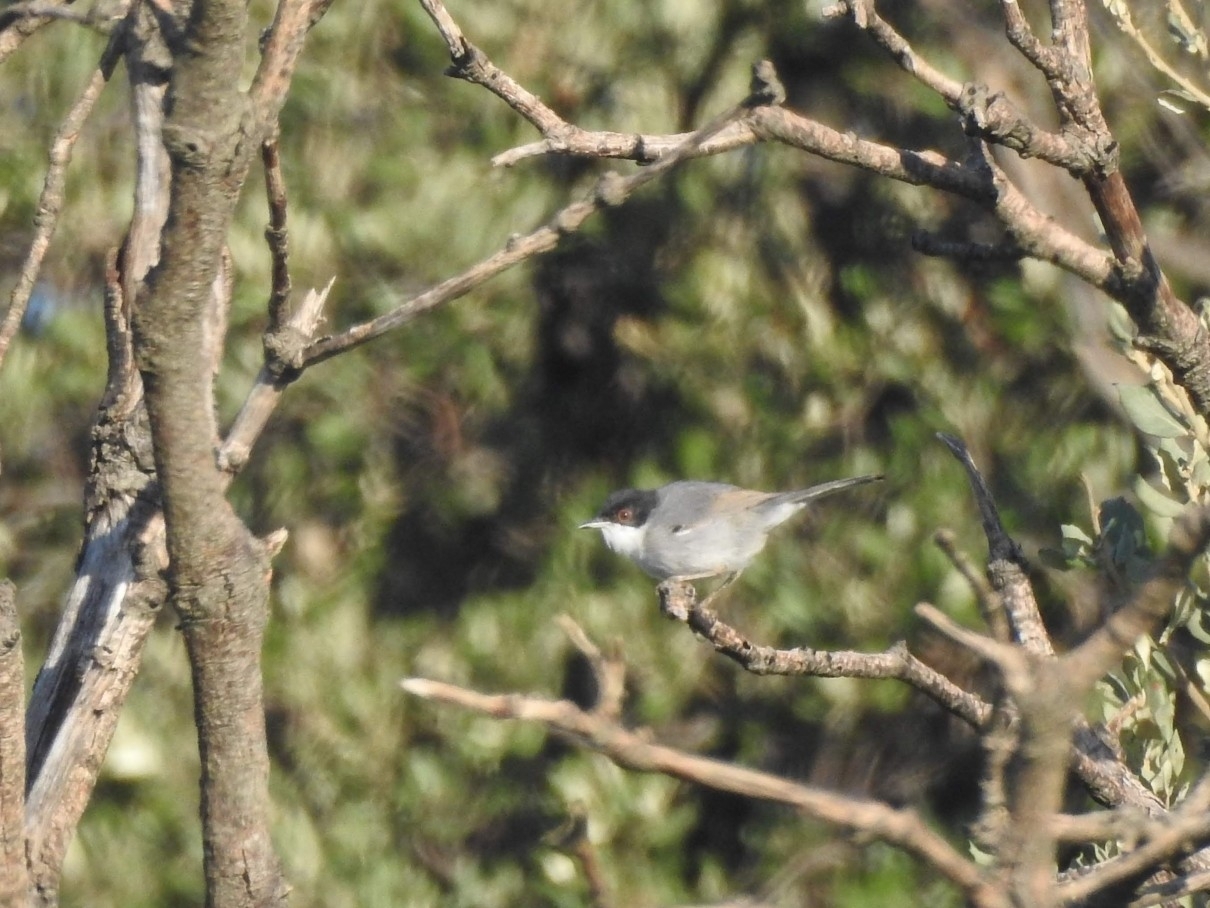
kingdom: Animalia
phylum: Chordata
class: Aves
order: Passeriformes
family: Sylviidae
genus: Curruca
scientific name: Curruca melanocephala
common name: Sardinian warbler
